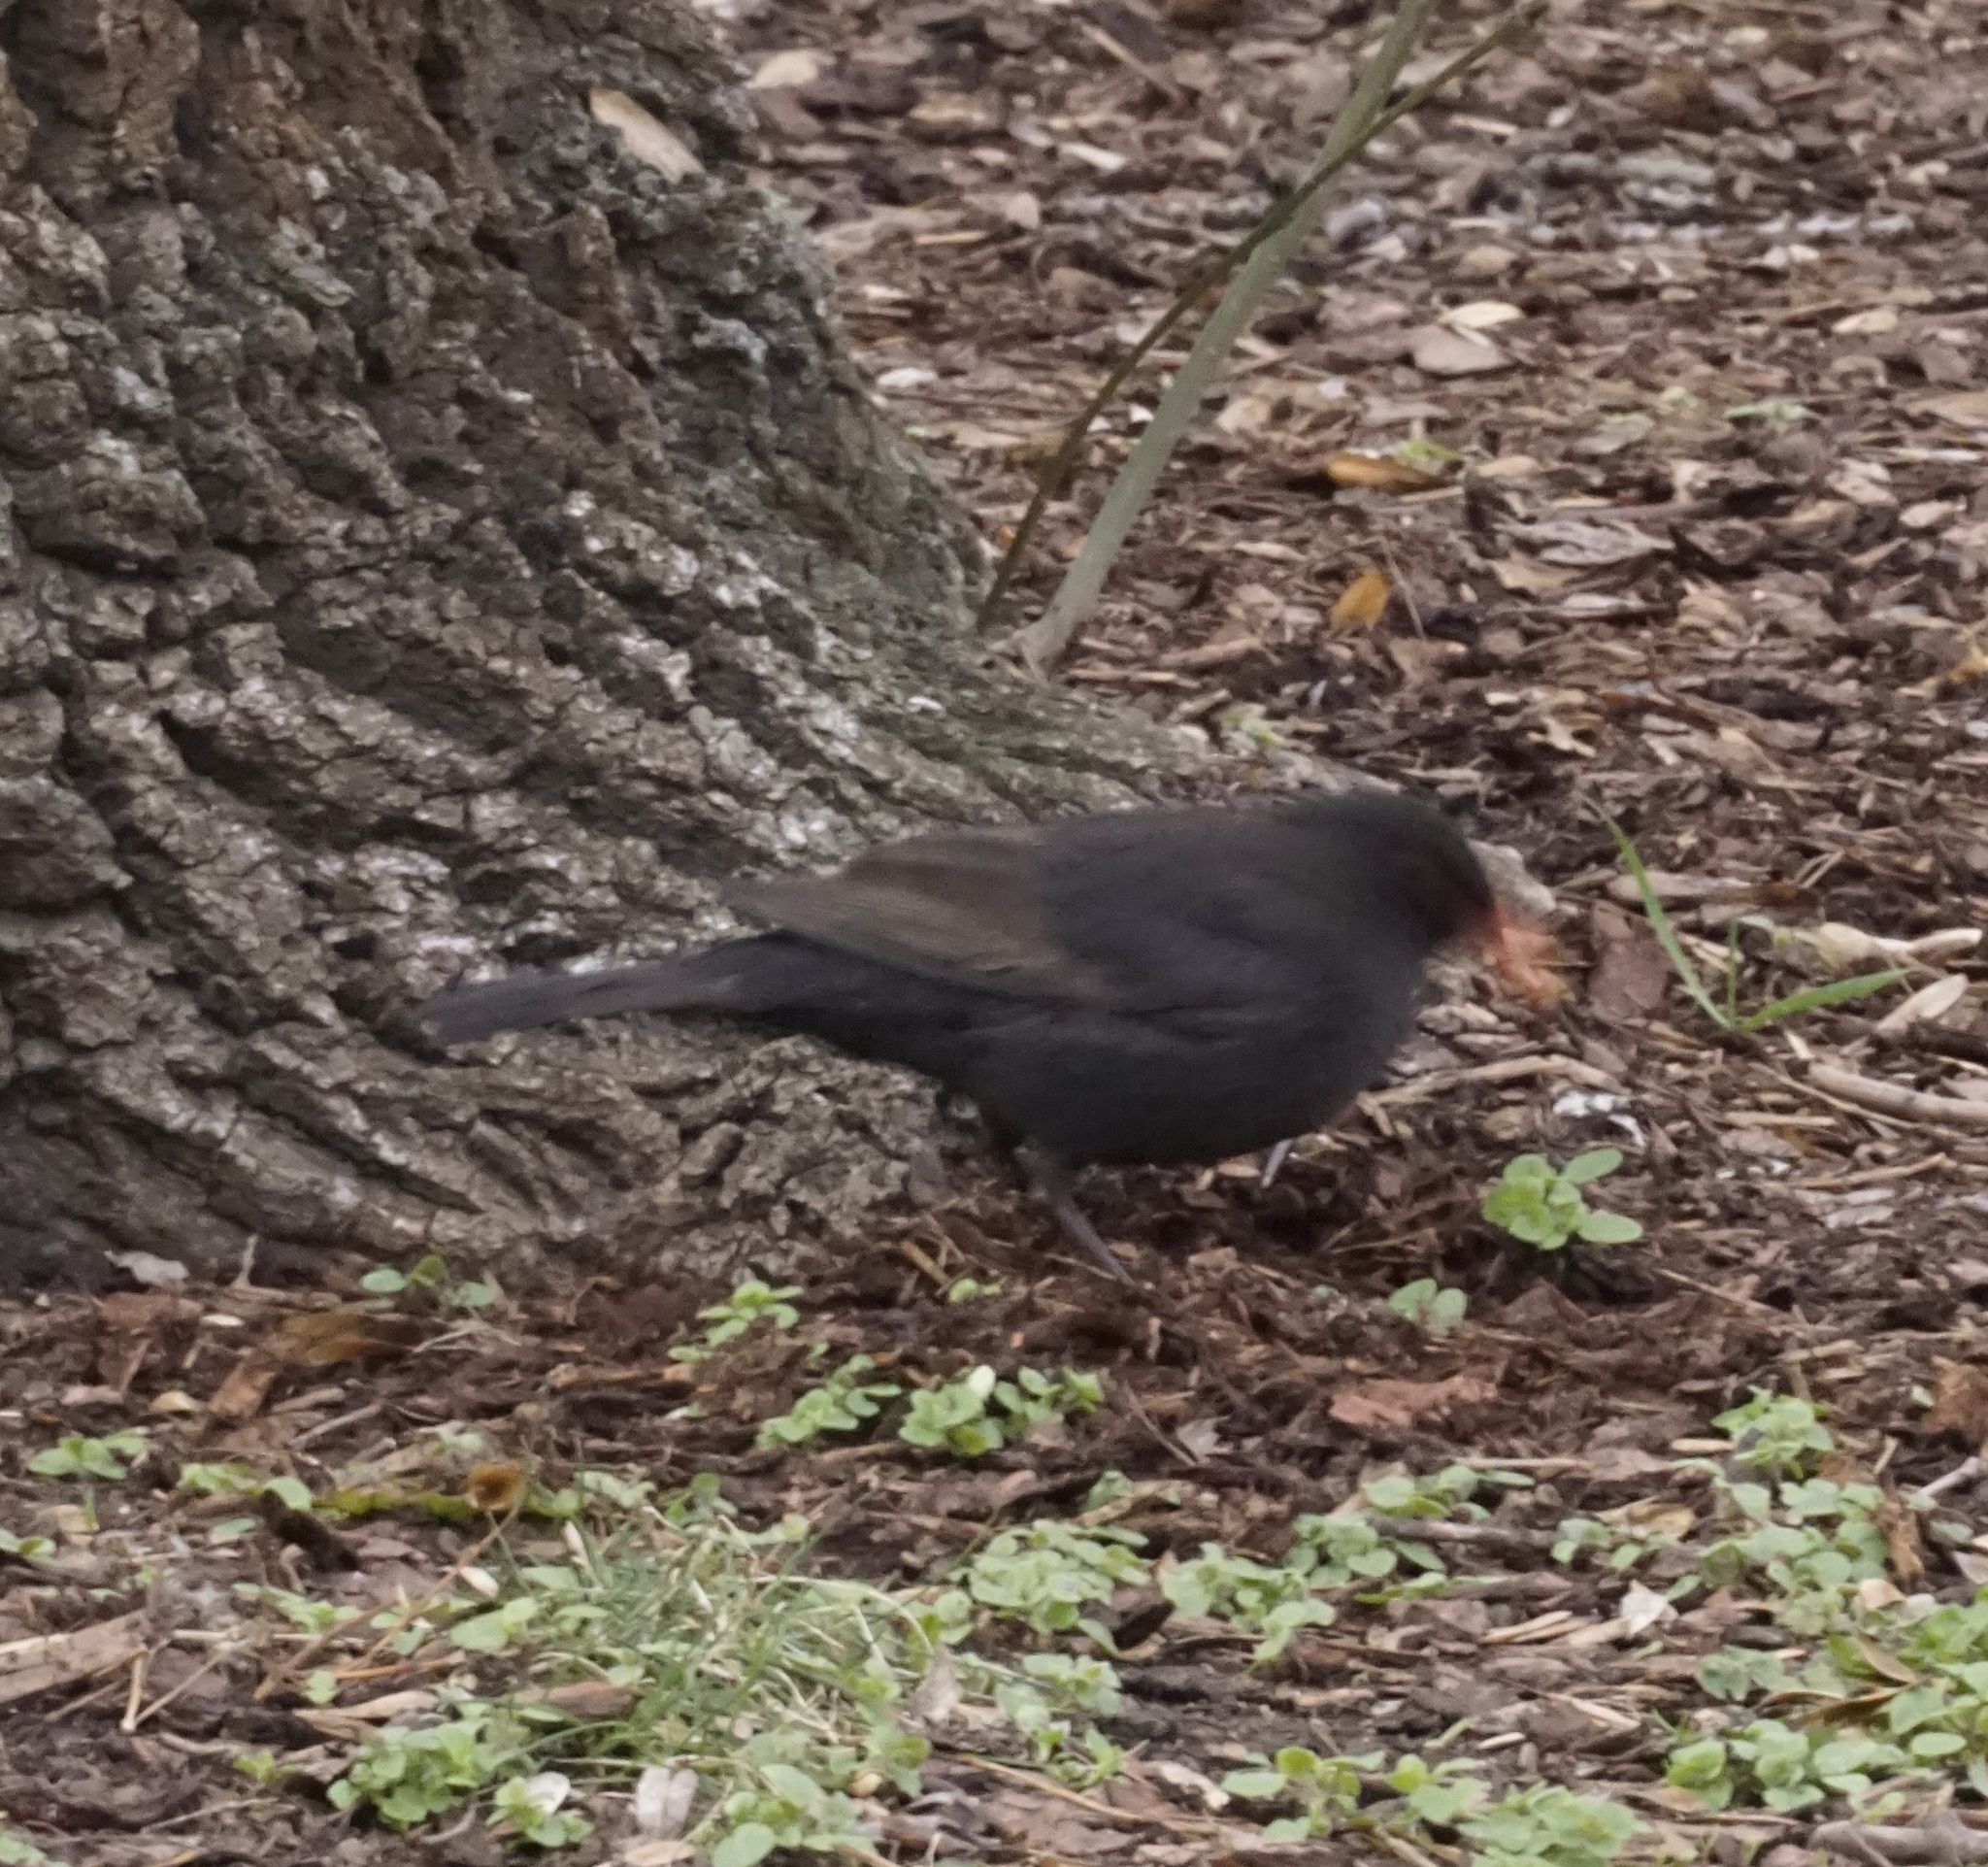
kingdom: Animalia
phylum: Chordata
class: Aves
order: Passeriformes
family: Turdidae
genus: Turdus
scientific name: Turdus merula
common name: Common blackbird
